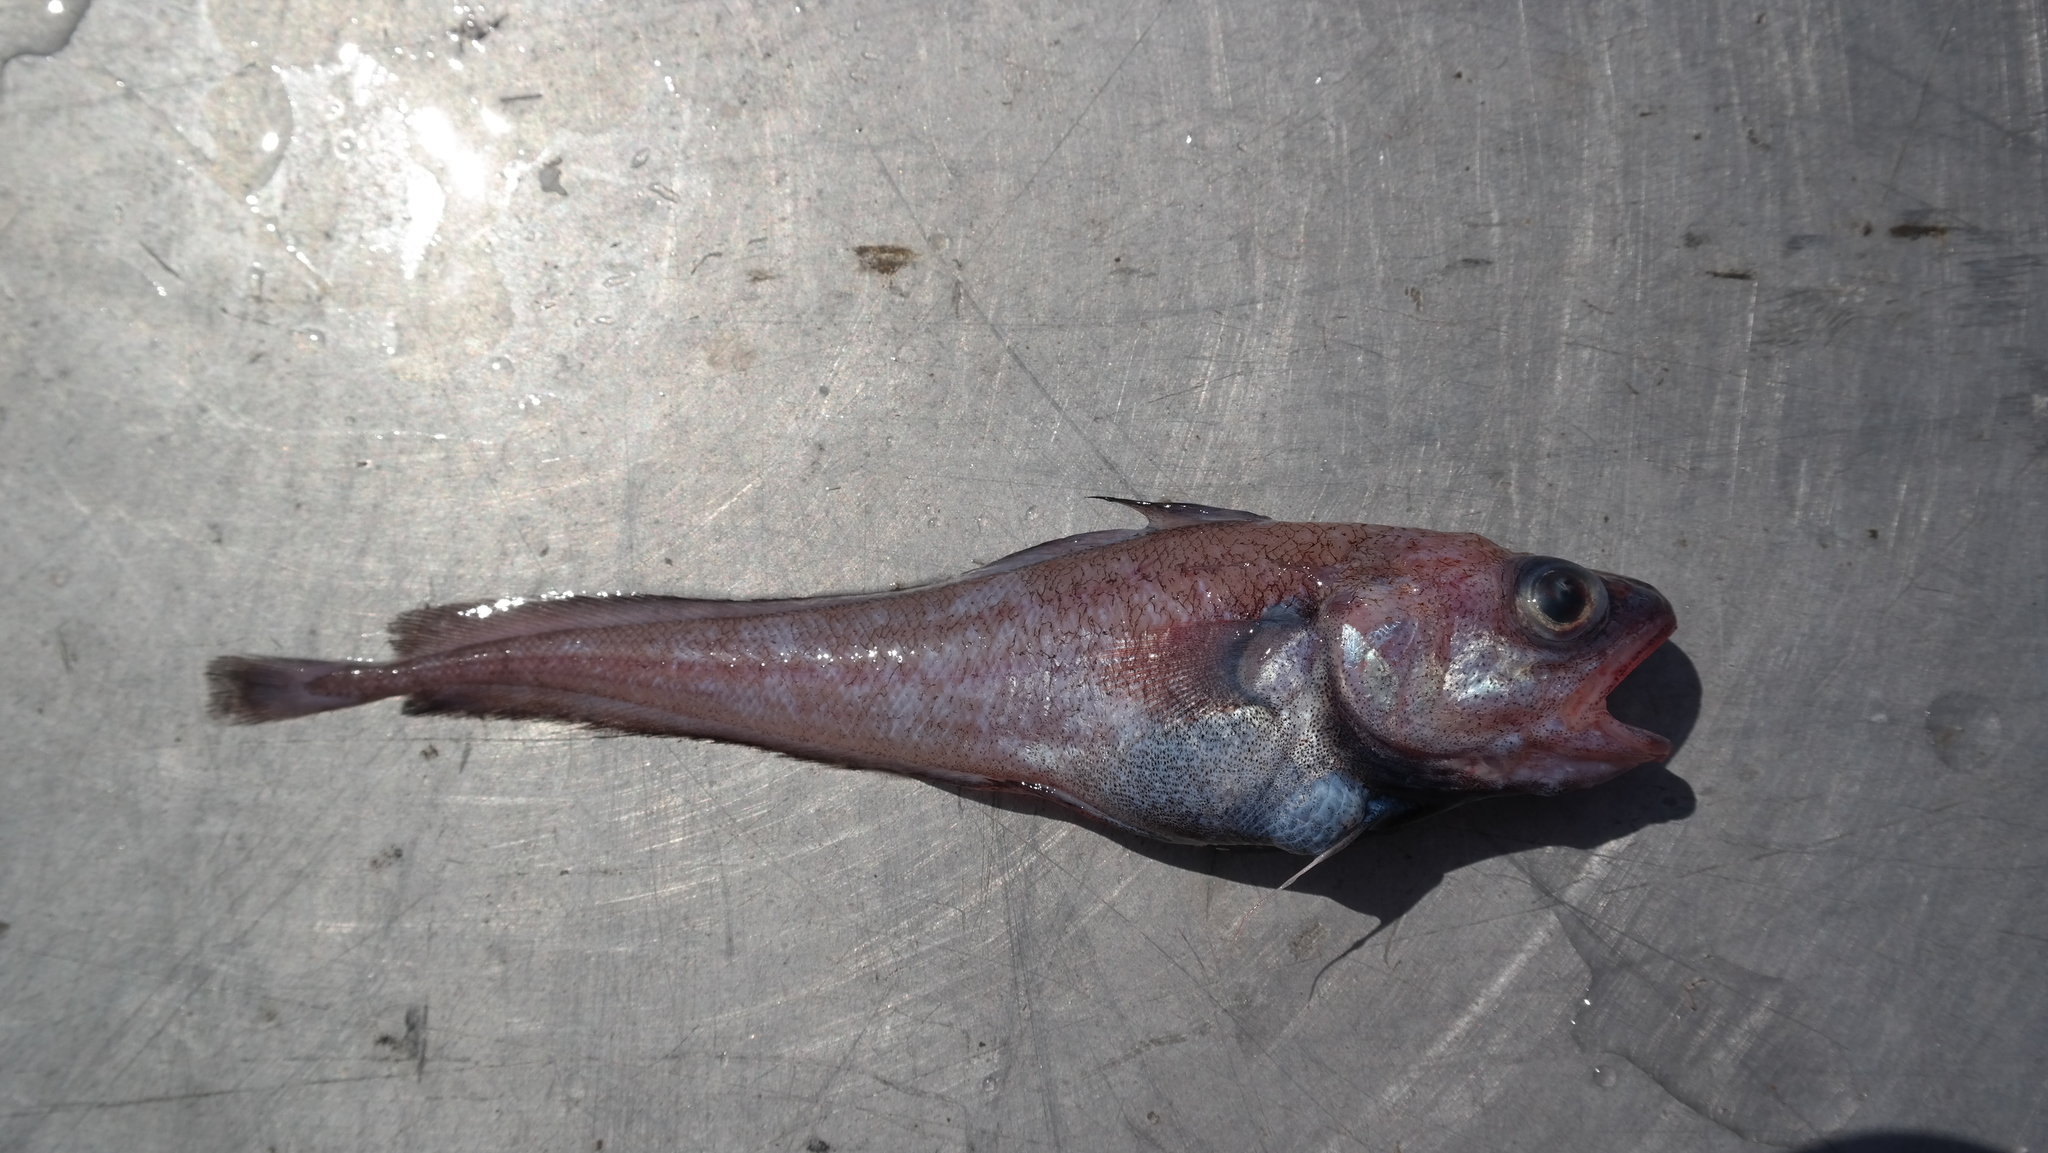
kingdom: Animalia
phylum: Chordata
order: Gadiformes
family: Moridae
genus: Physiculus
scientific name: Physiculus rastrelliger
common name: Hundred fathom mora
